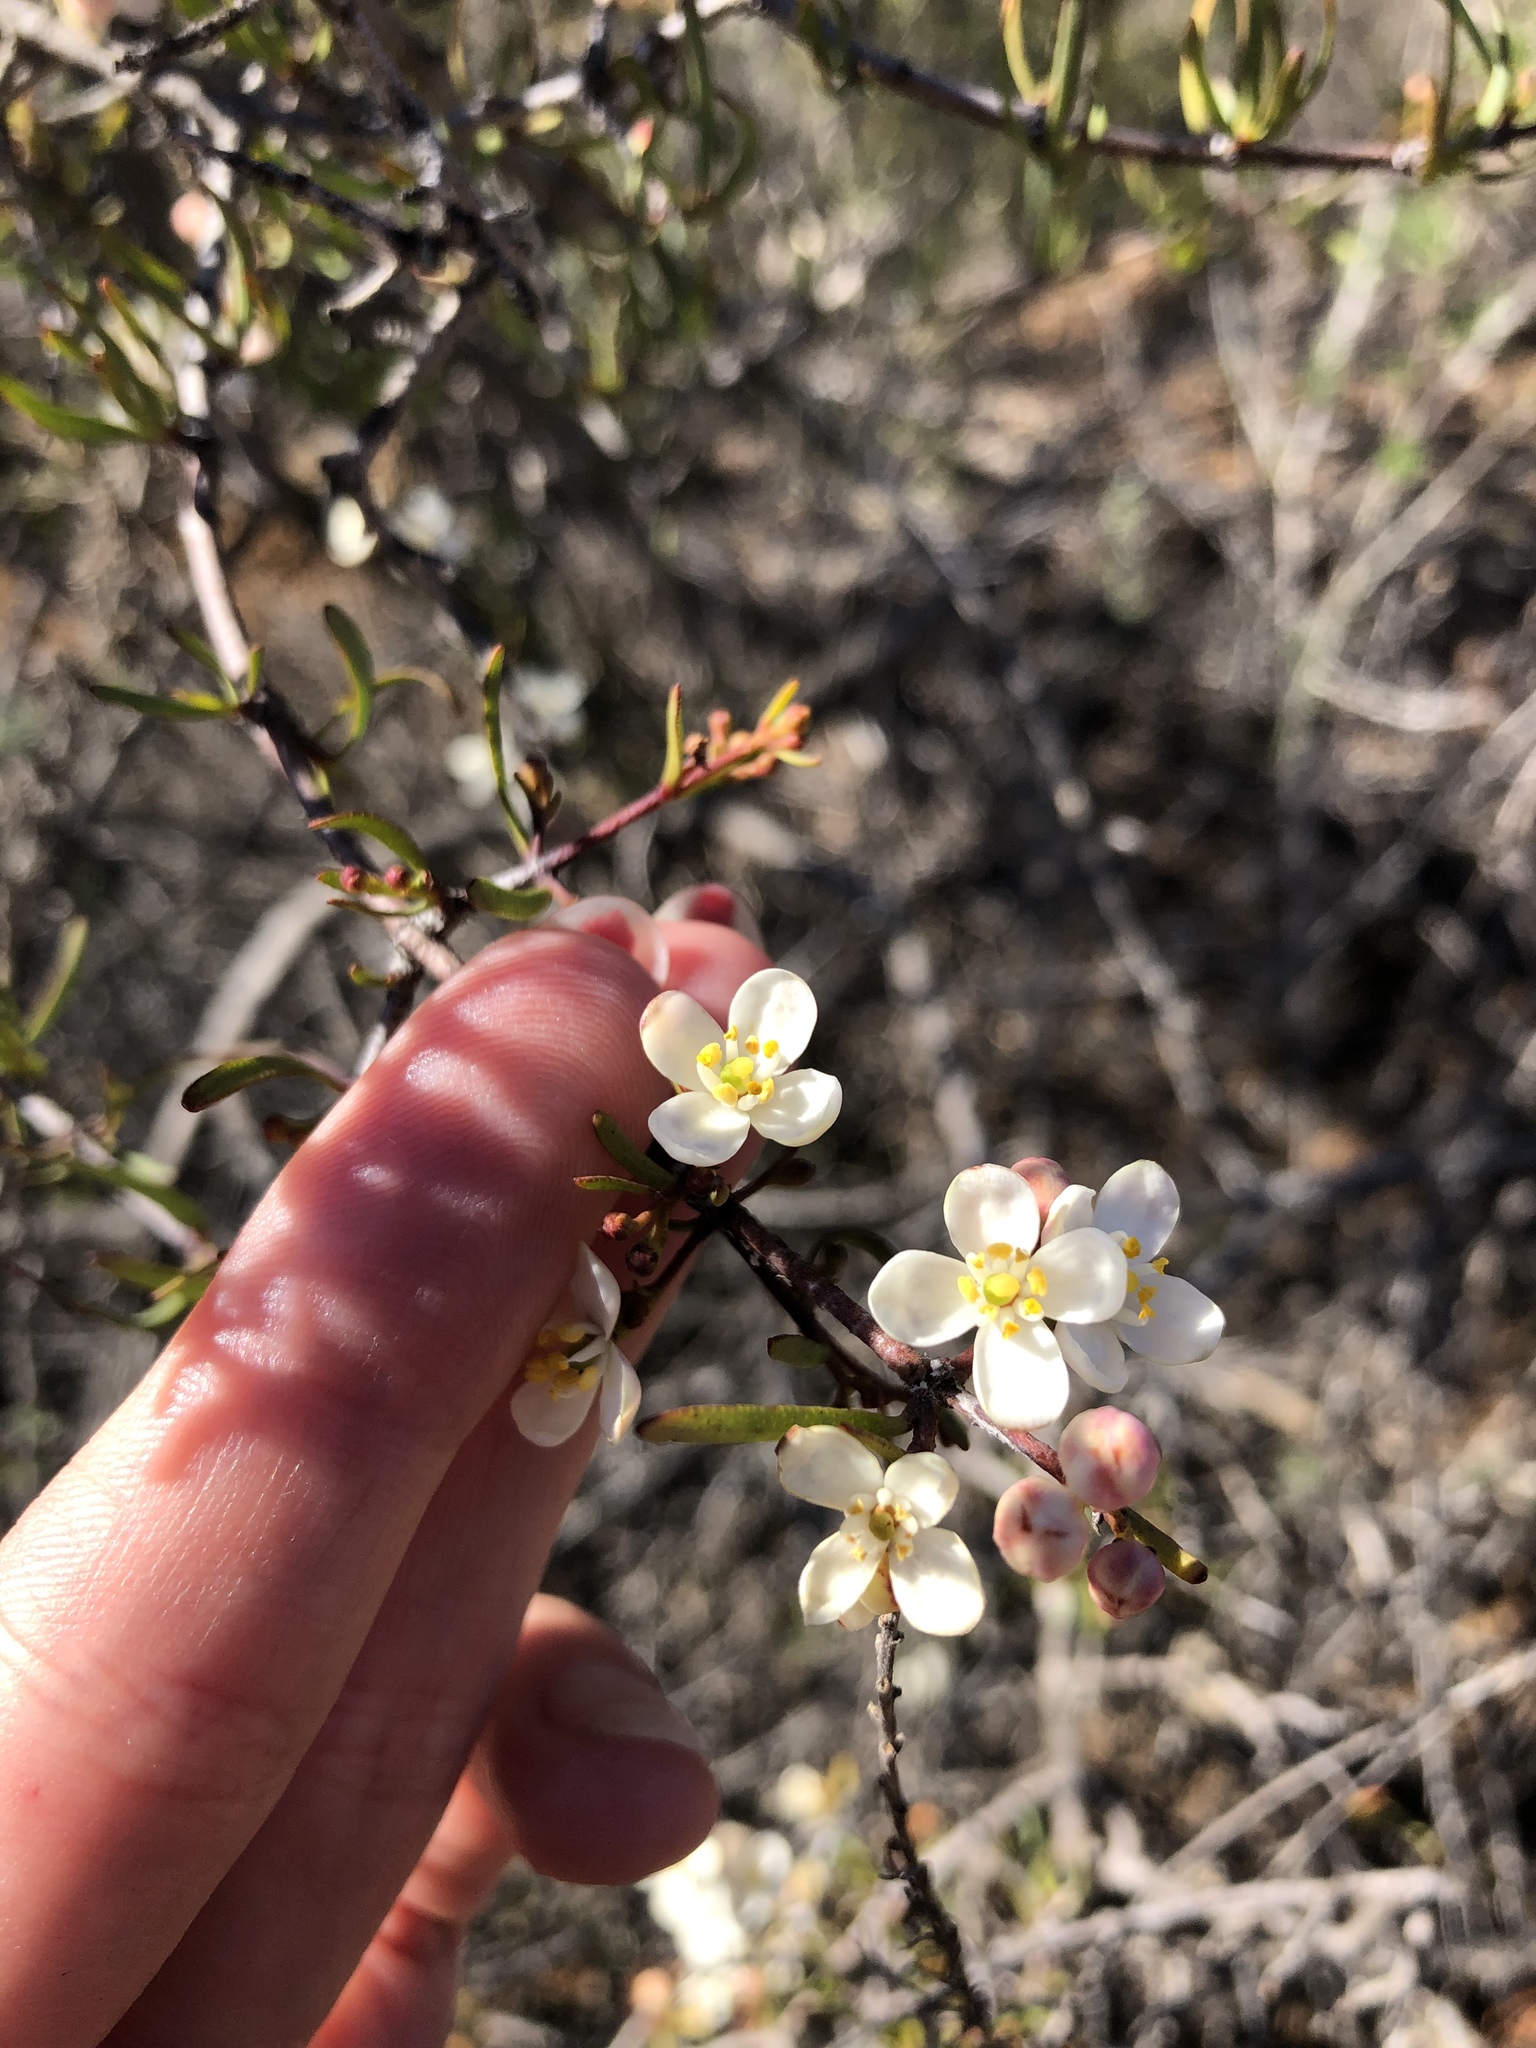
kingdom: Plantae
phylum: Tracheophyta
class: Magnoliopsida
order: Sapindales
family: Rutaceae
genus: Cneoridium
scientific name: Cneoridium dumosum
